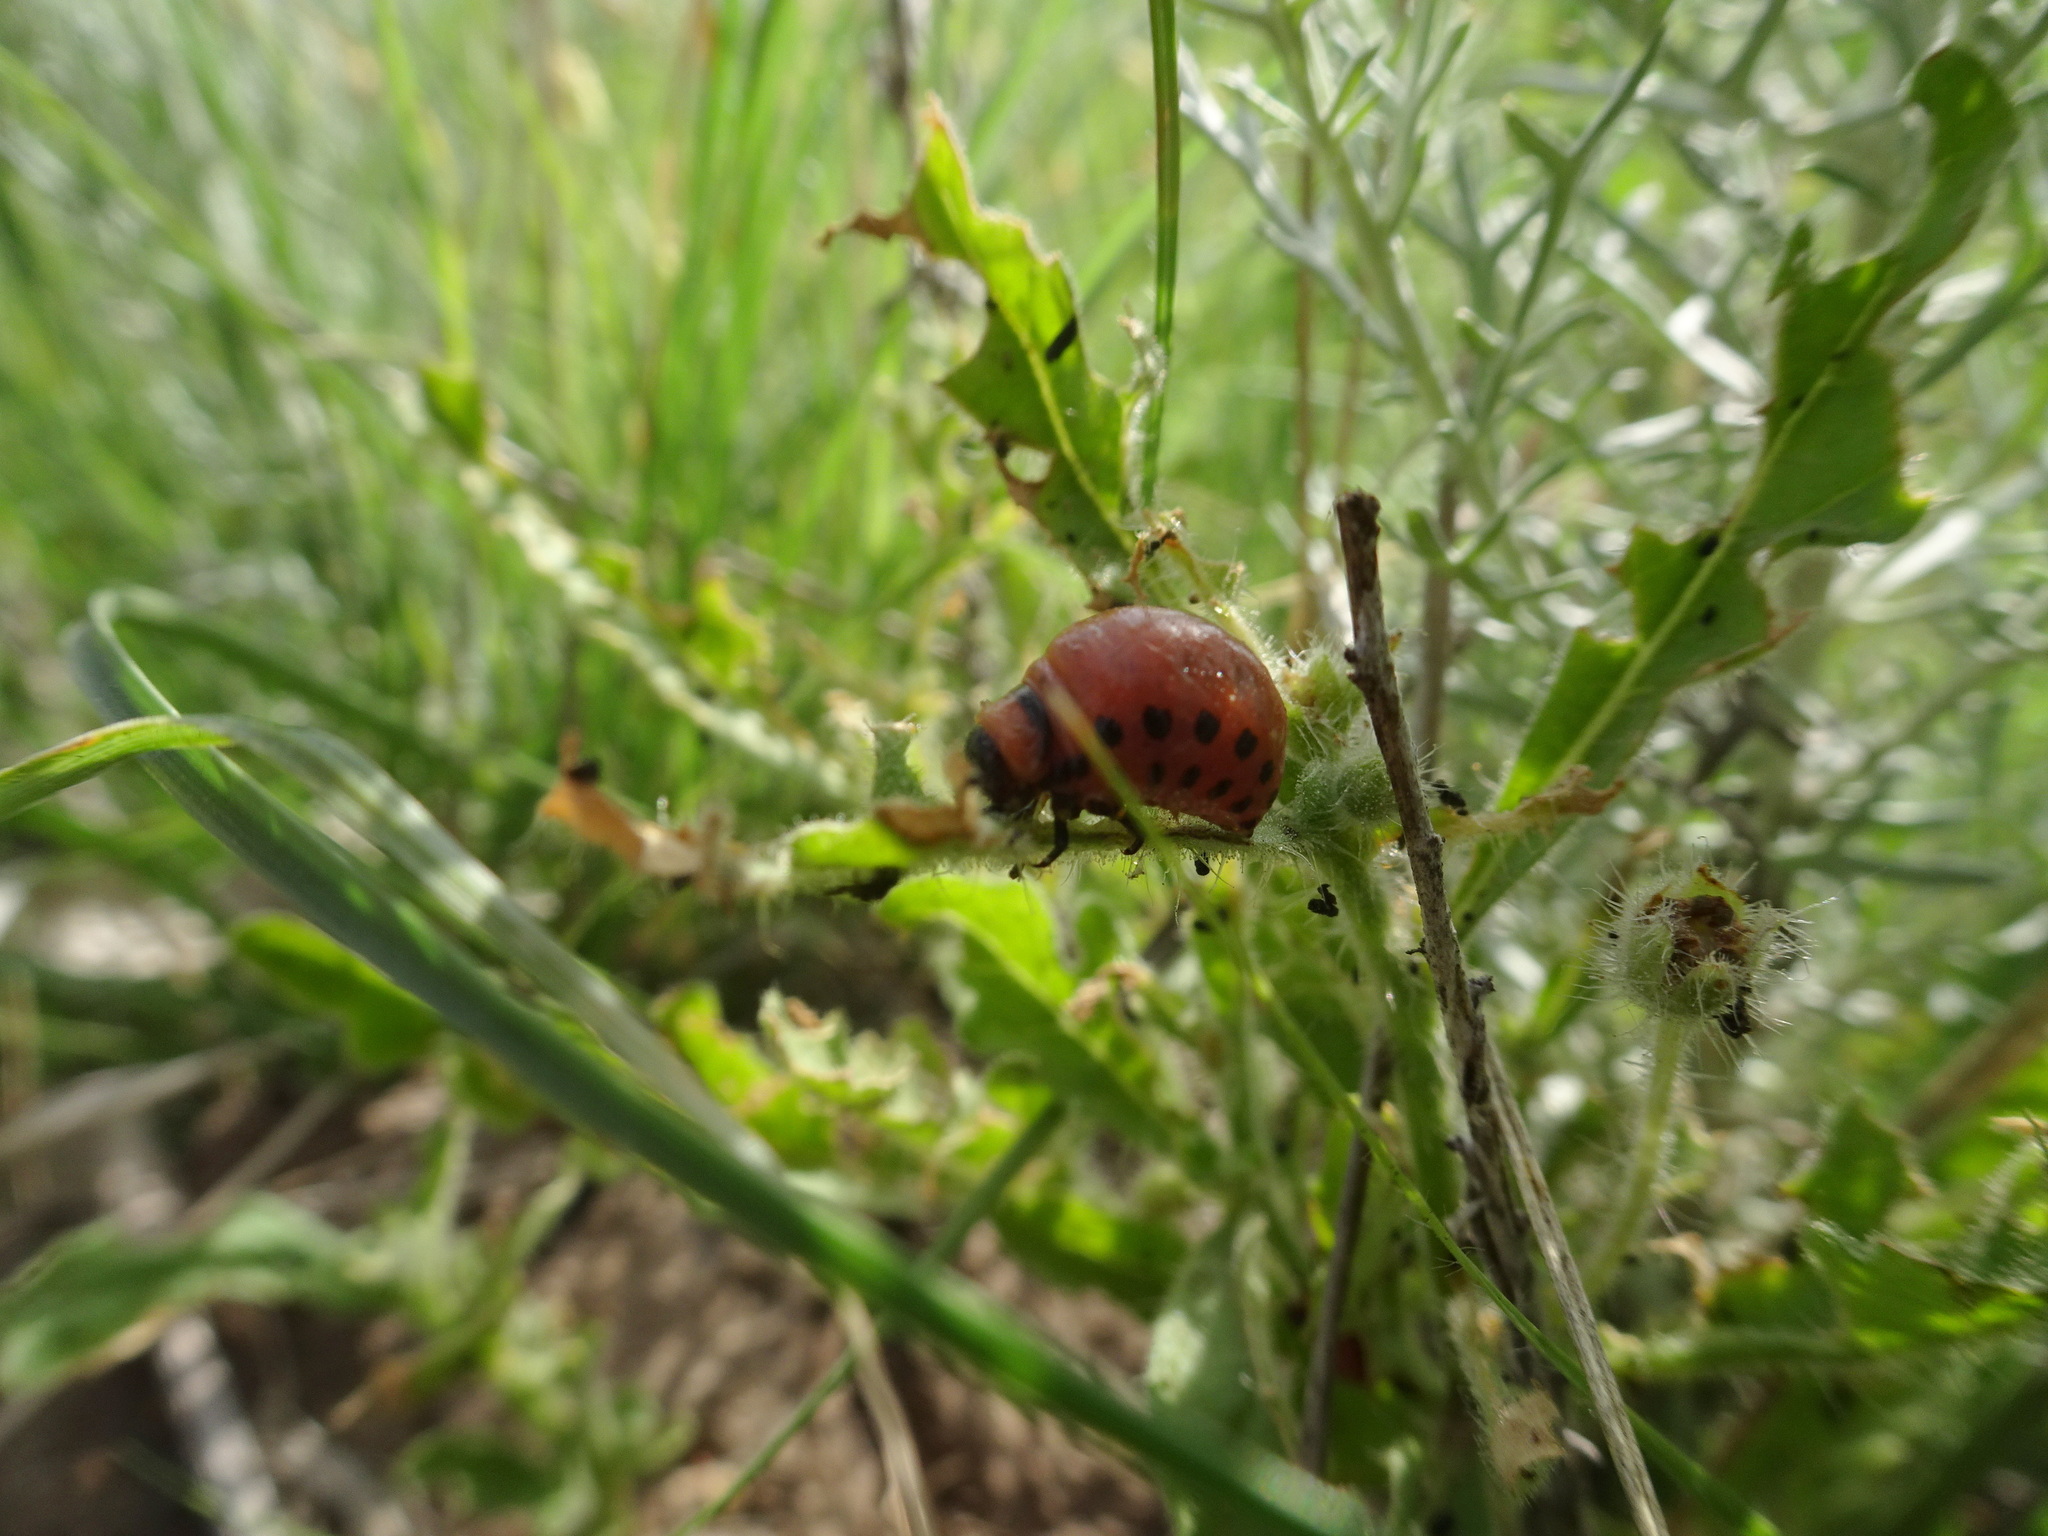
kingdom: Animalia
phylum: Arthropoda
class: Insecta
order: Coleoptera
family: Chrysomelidae
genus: Leptinotarsa
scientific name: Leptinotarsa decemlineata
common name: Colorado potato beetle
